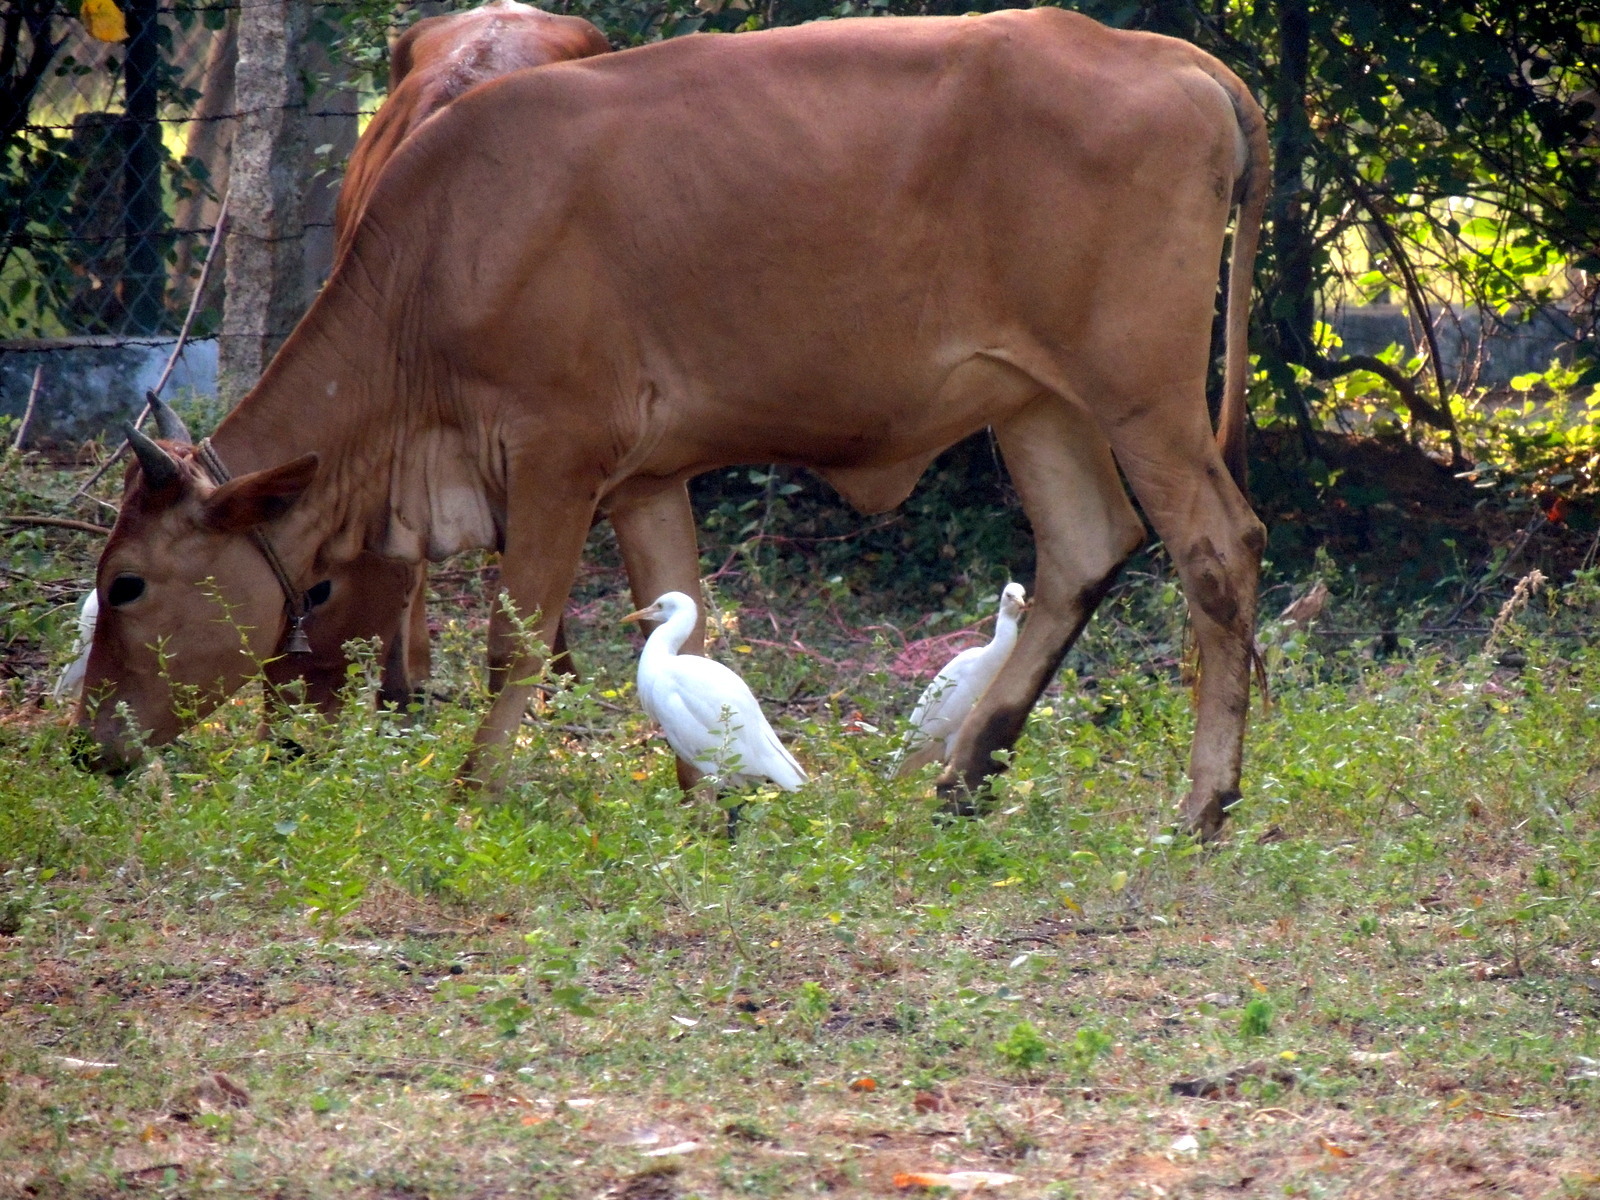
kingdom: Animalia
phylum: Chordata
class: Aves
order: Pelecaniformes
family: Ardeidae
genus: Bubulcus
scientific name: Bubulcus coromandus
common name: Eastern cattle egret
